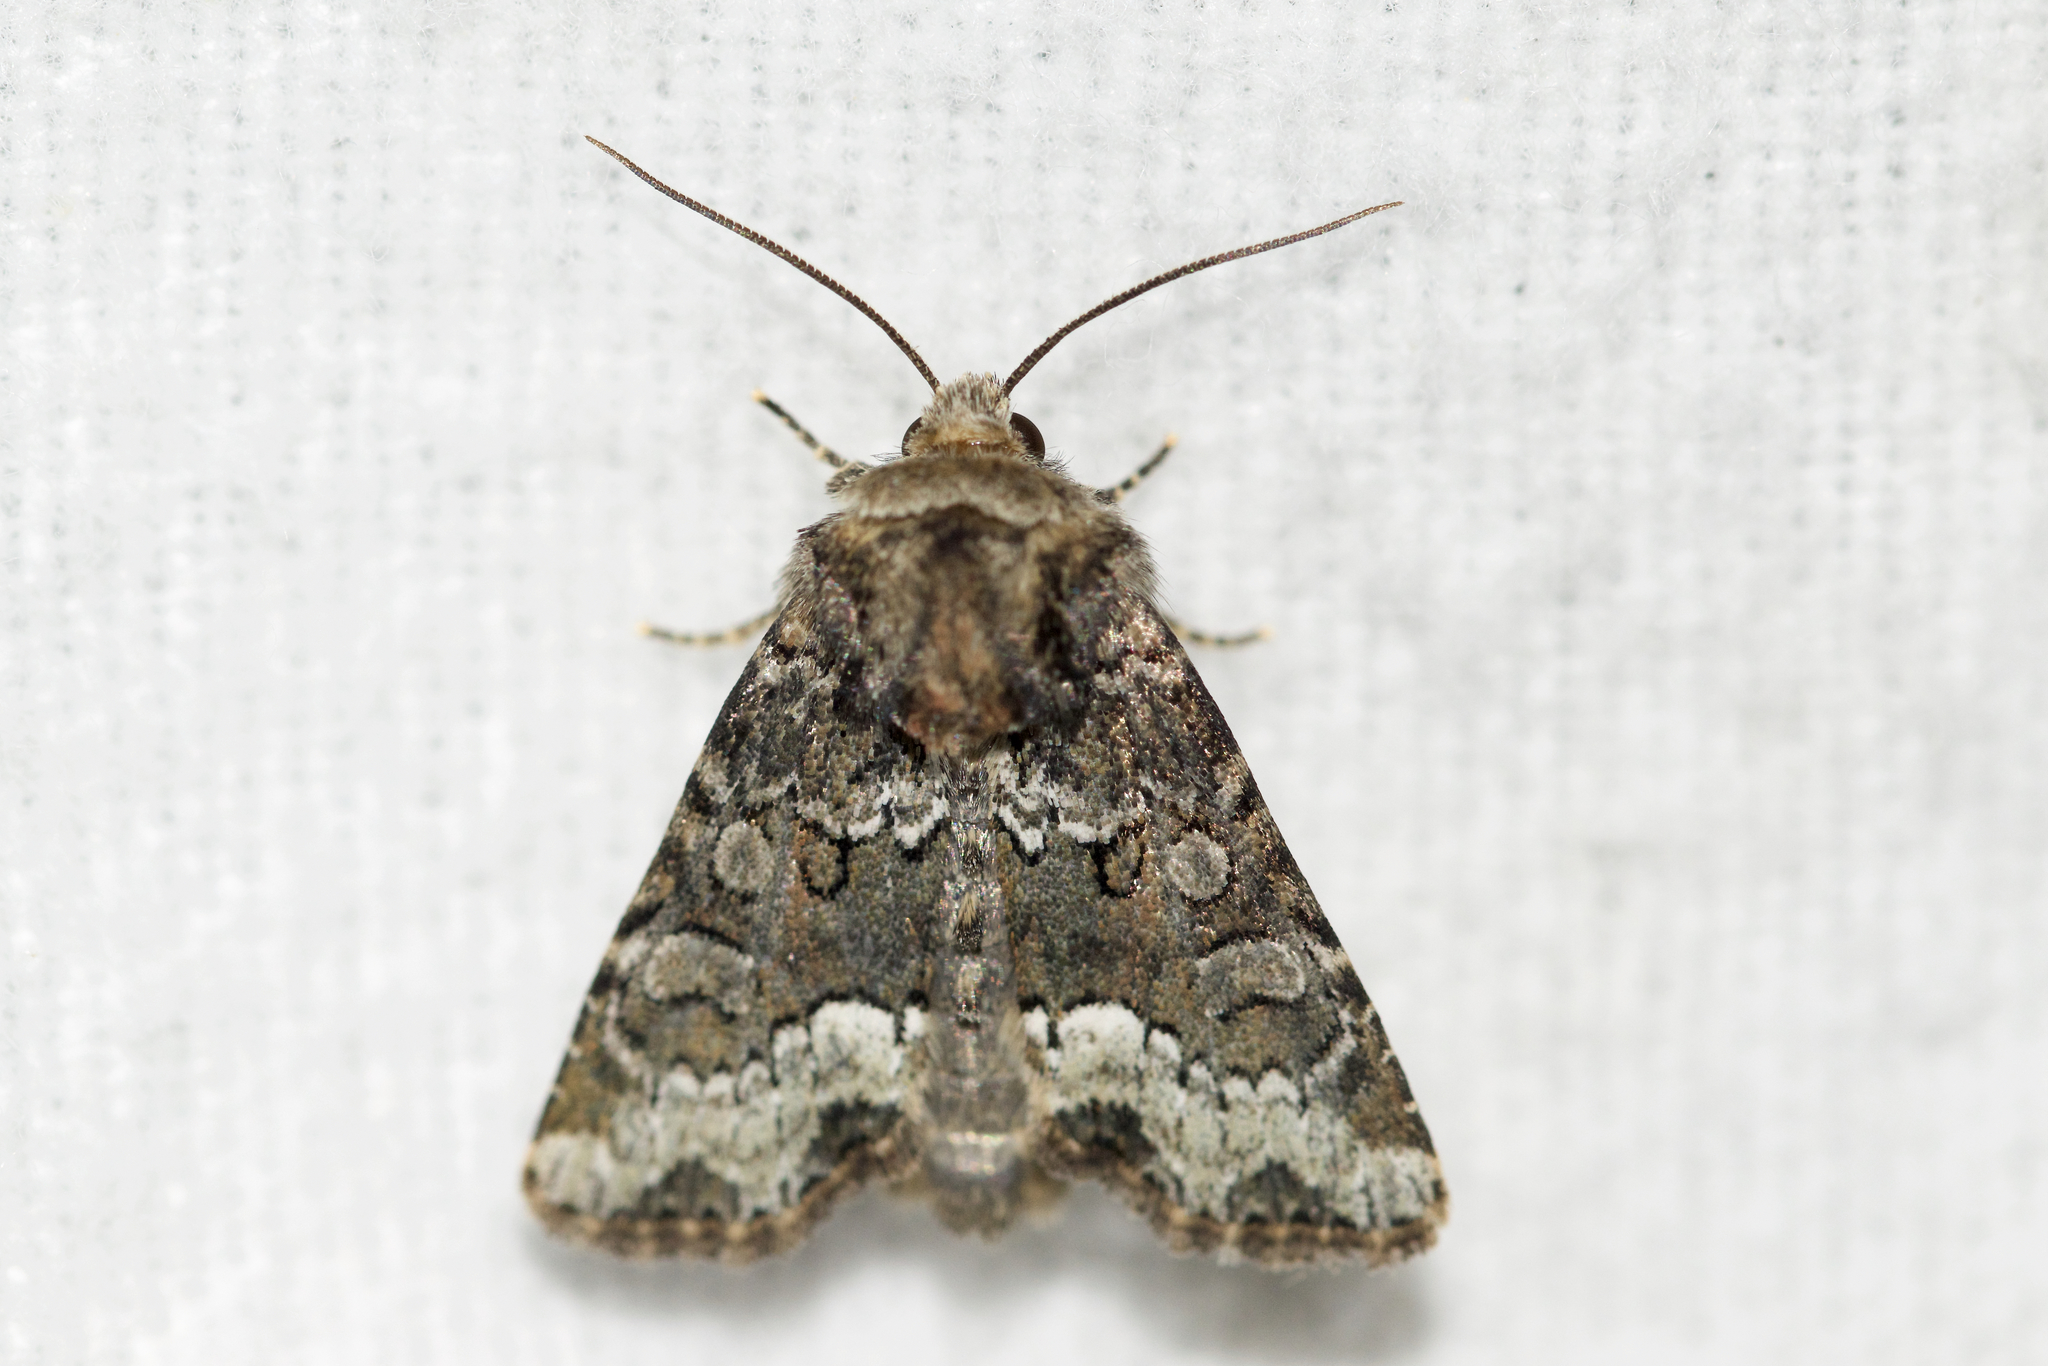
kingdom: Animalia
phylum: Arthropoda
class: Insecta
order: Lepidoptera
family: Noctuidae
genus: Oligia
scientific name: Oligia strigilis
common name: Marbled minor
